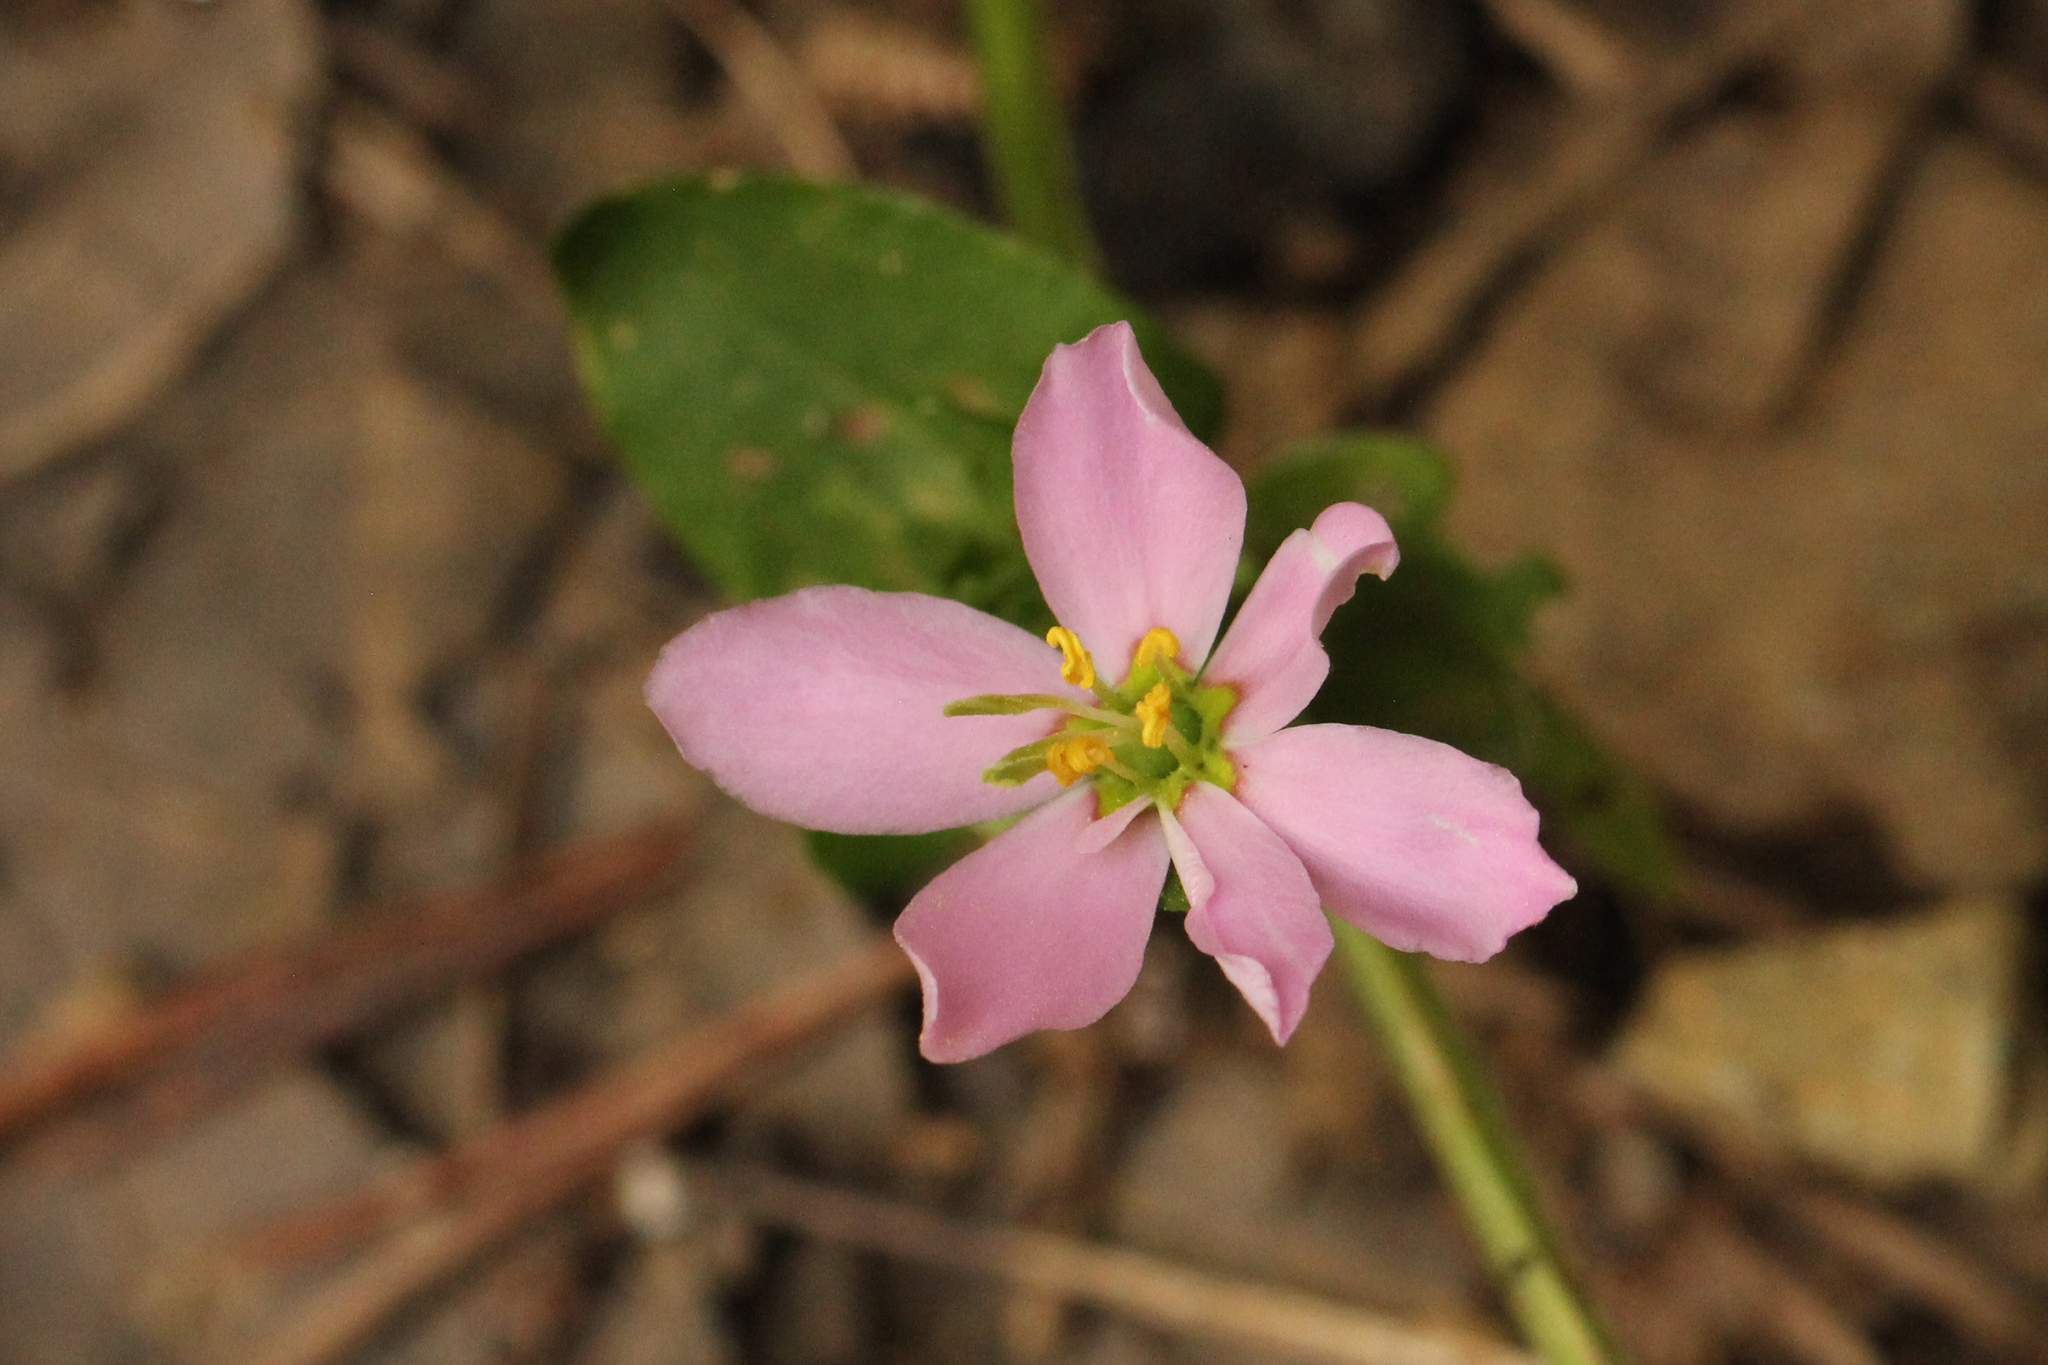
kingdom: Plantae
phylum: Tracheophyta
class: Magnoliopsida
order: Gentianales
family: Gentianaceae
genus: Sabatia
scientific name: Sabatia angularis
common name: Rose-pink
